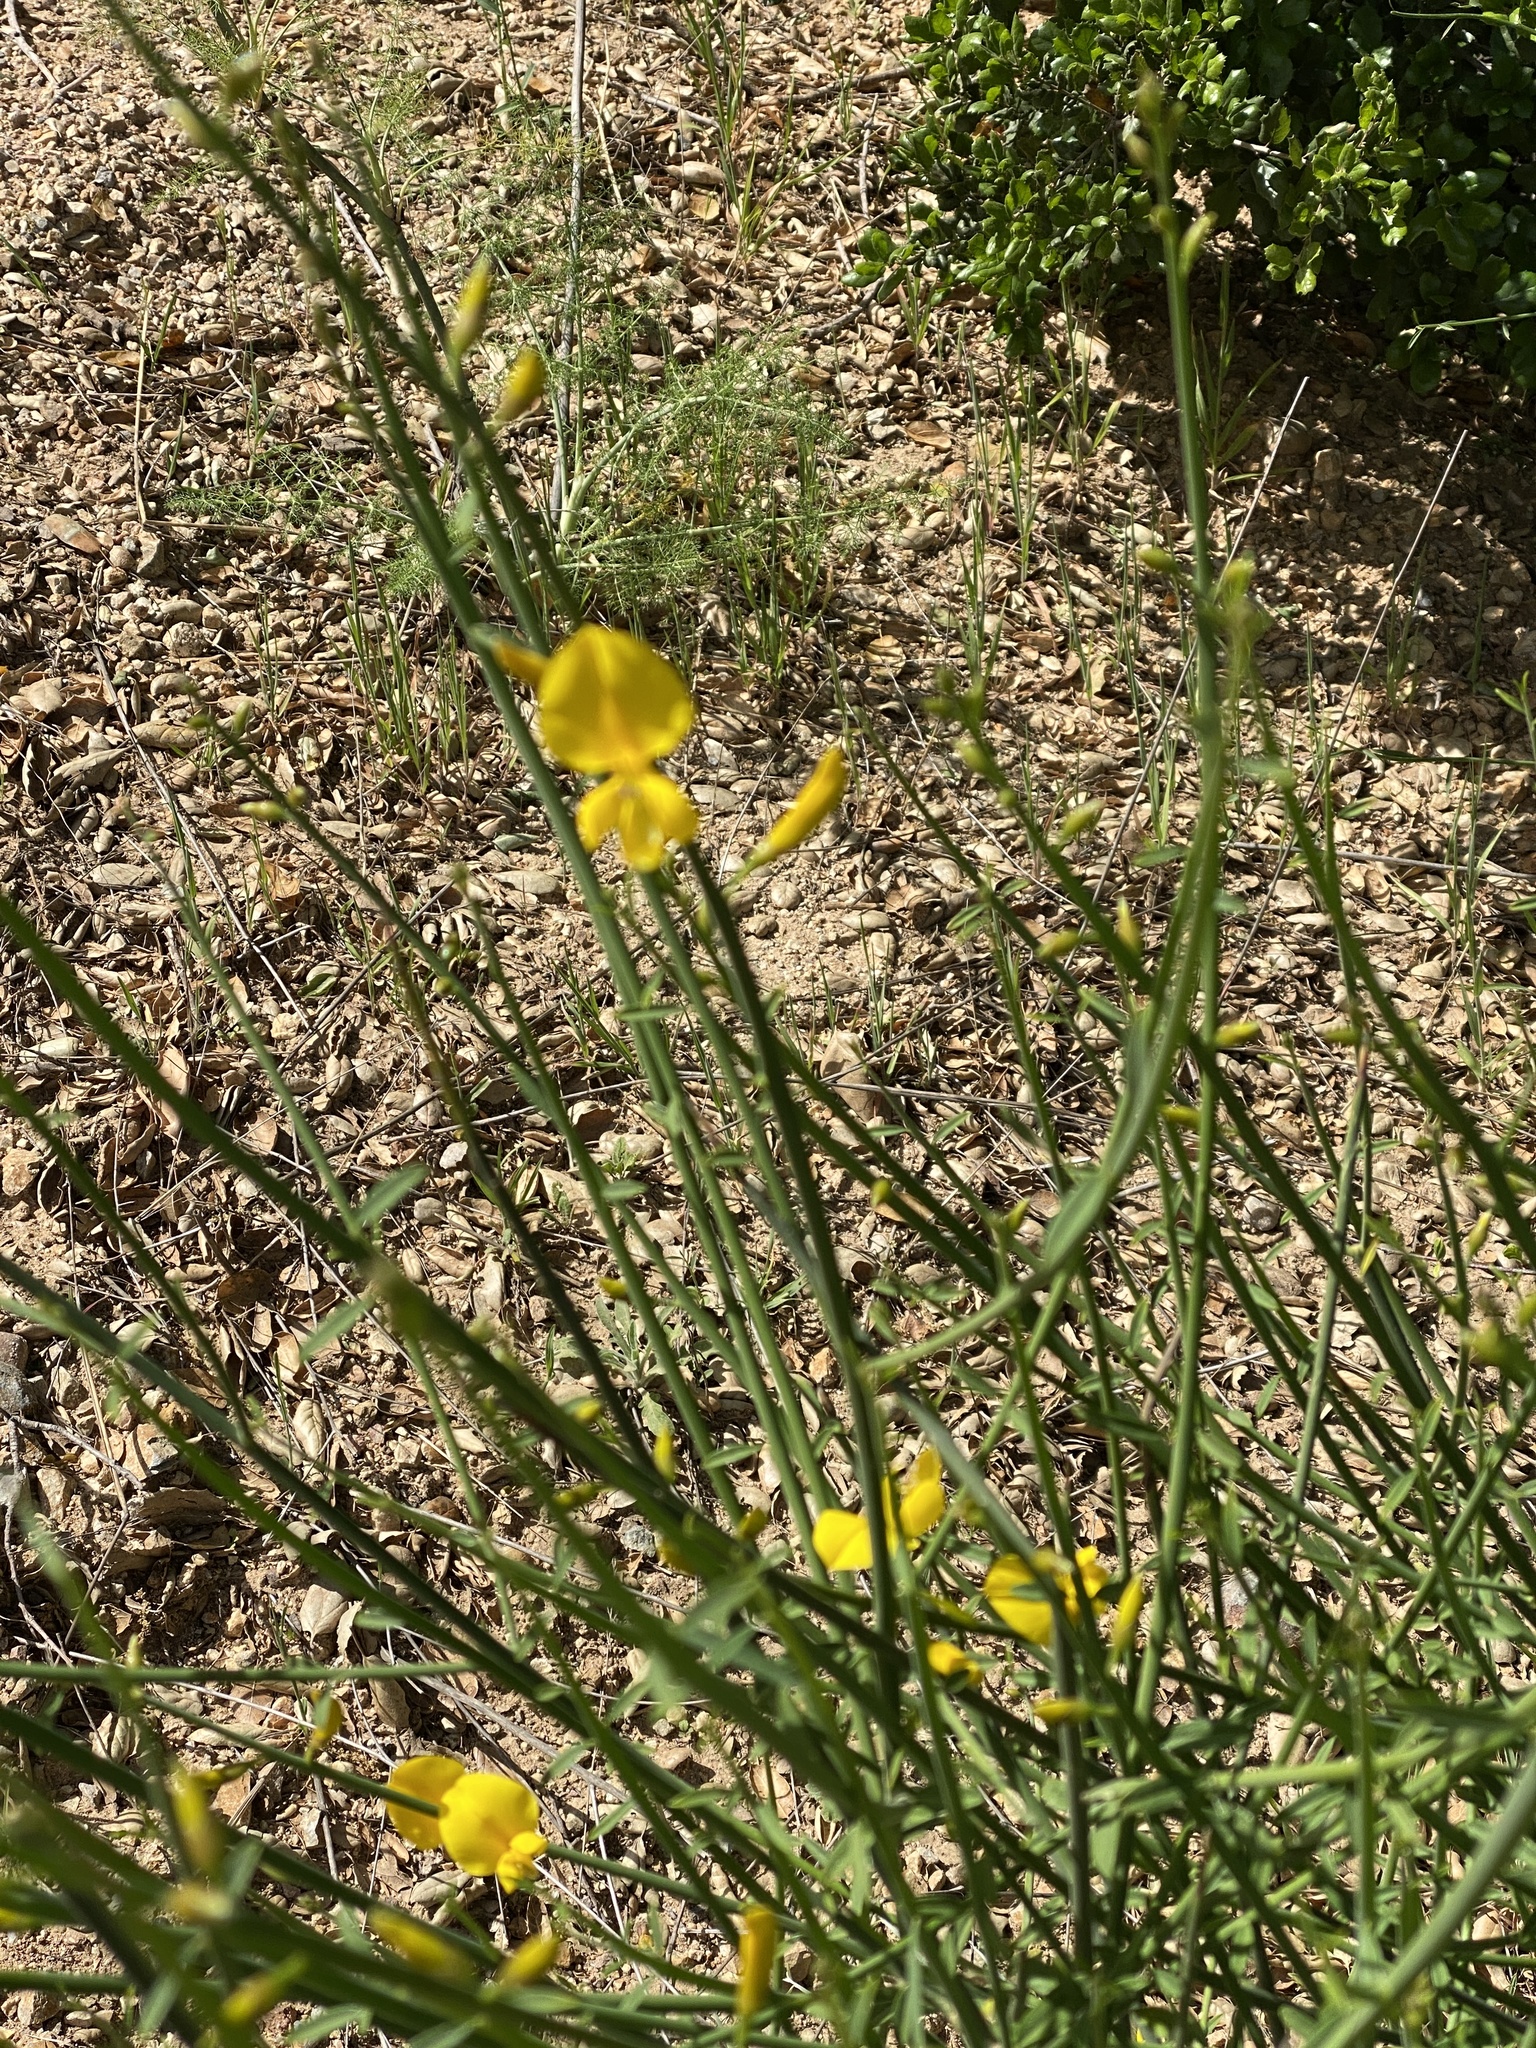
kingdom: Plantae
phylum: Tracheophyta
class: Magnoliopsida
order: Fabales
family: Fabaceae
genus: Spartium
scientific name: Spartium junceum
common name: Spanish broom
